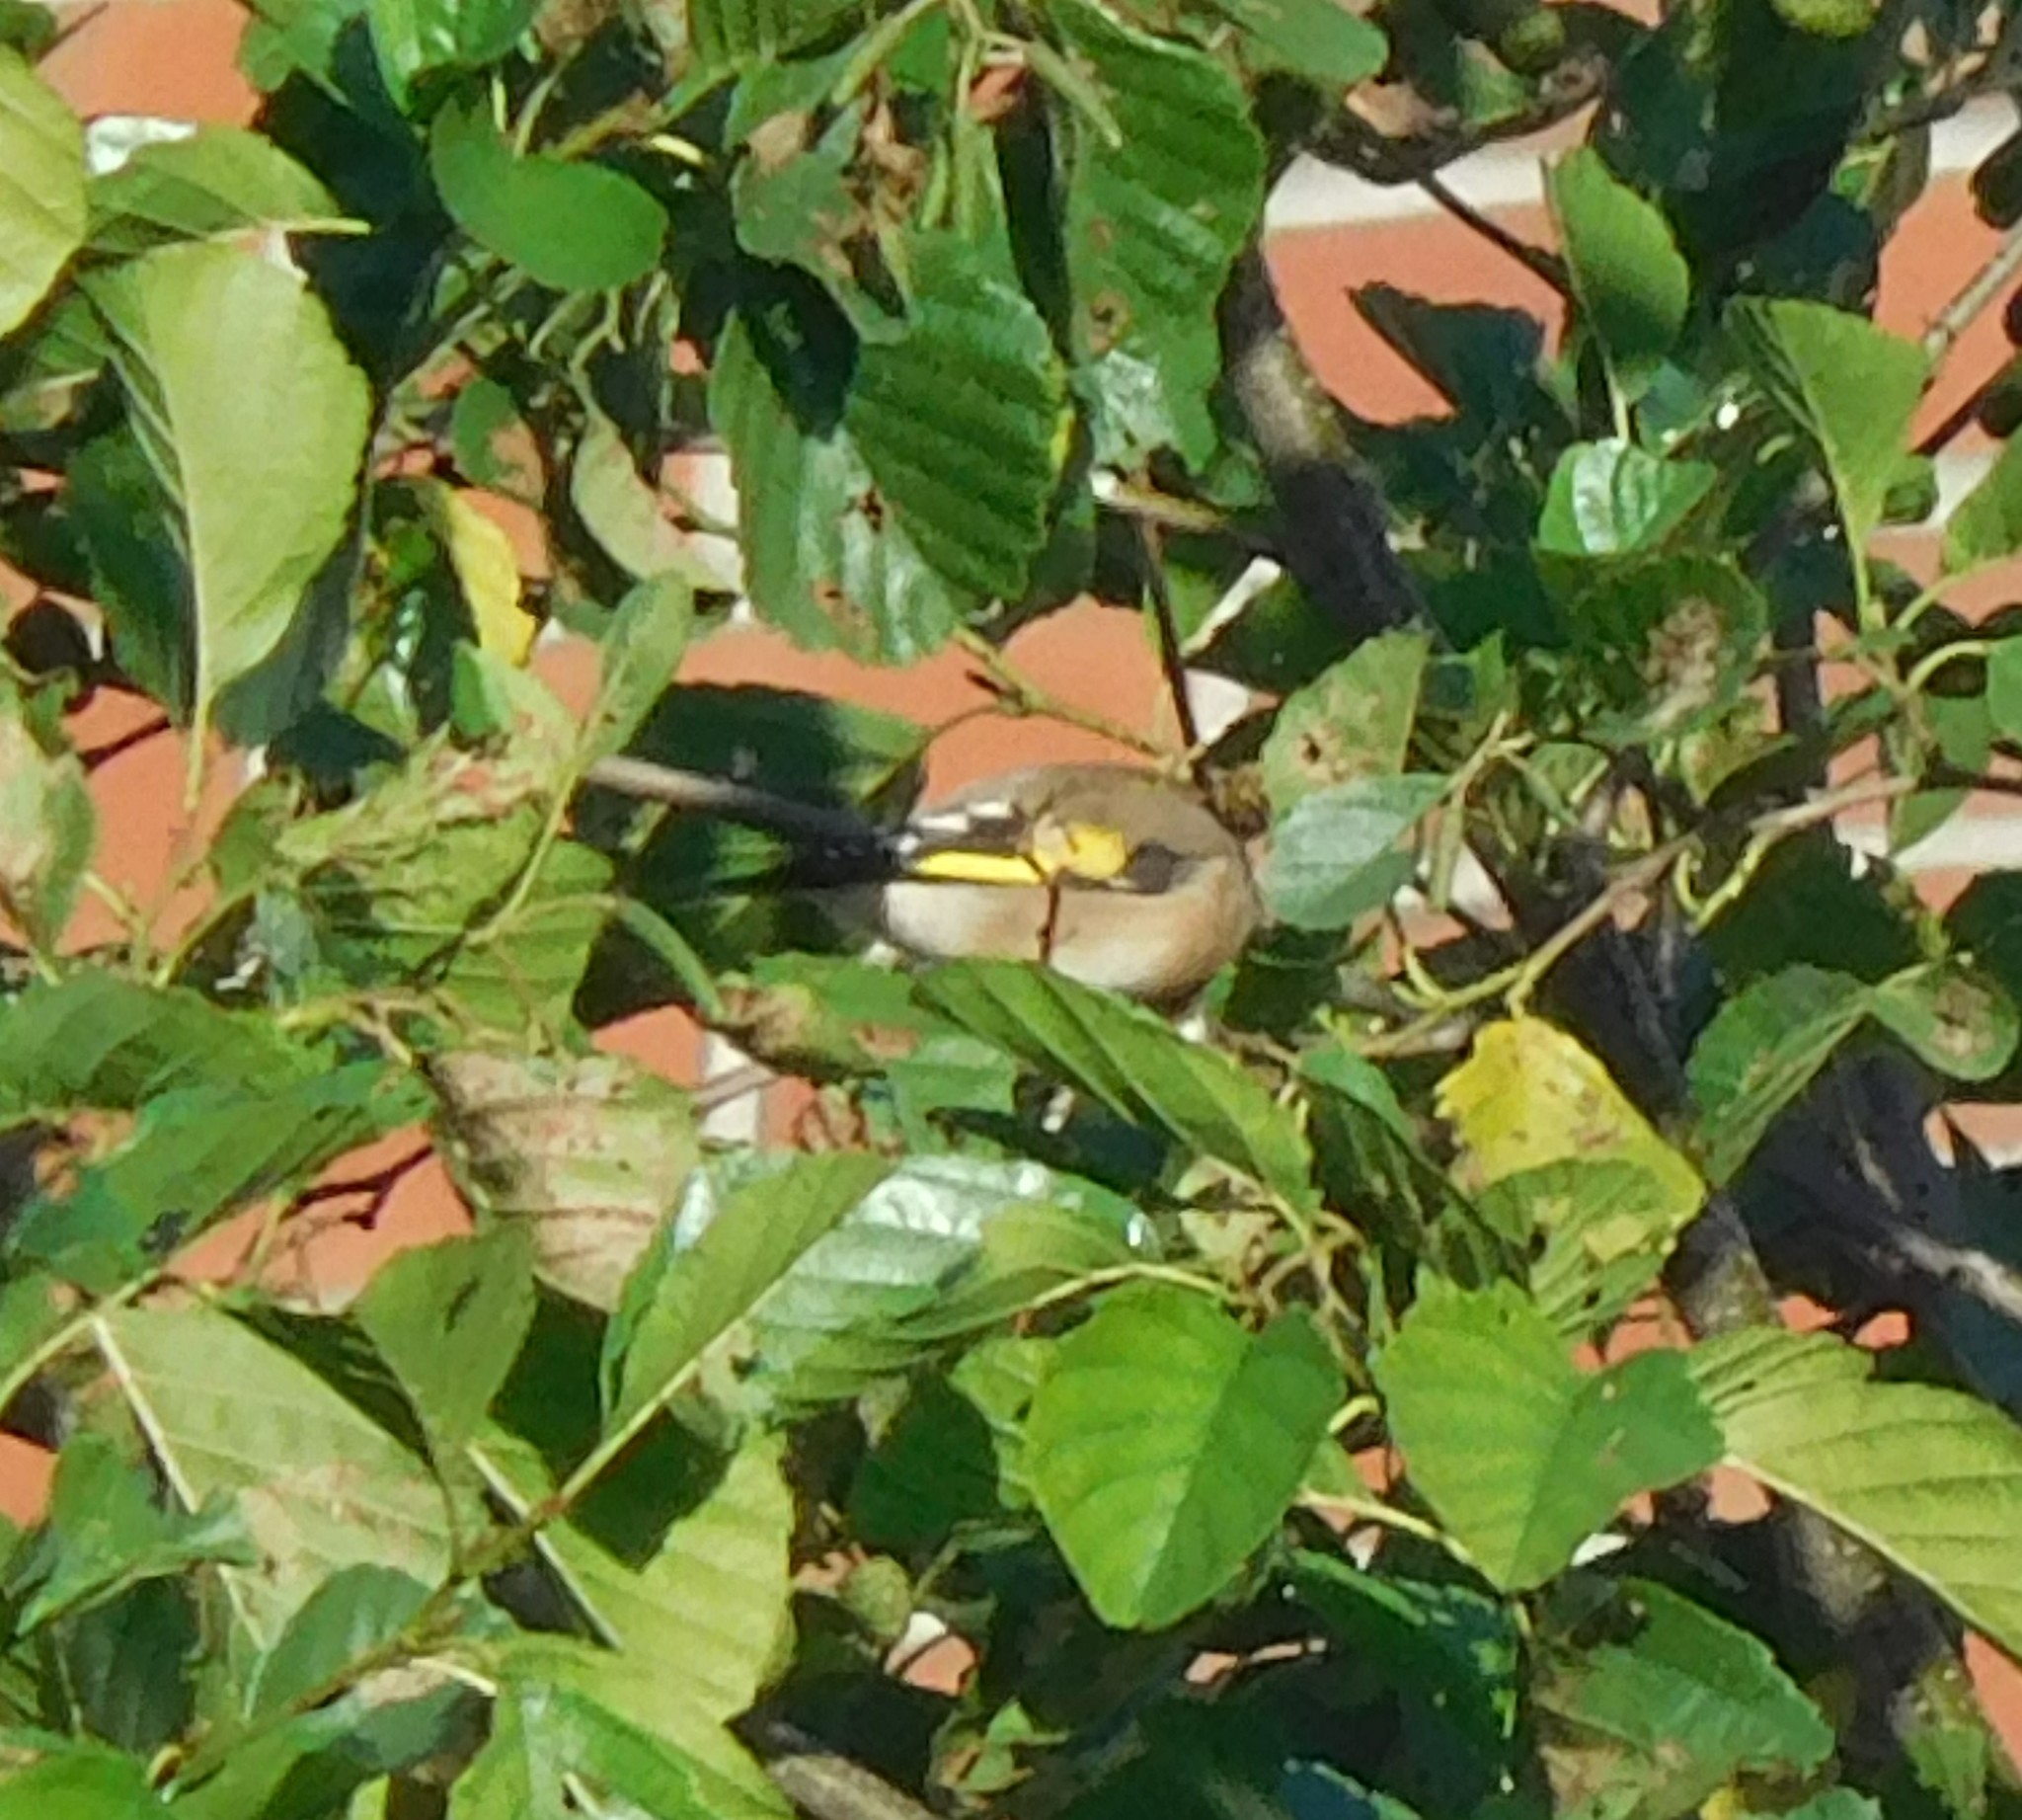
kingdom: Animalia
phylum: Chordata
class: Aves
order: Passeriformes
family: Fringillidae
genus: Carduelis
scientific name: Carduelis carduelis
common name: European goldfinch
